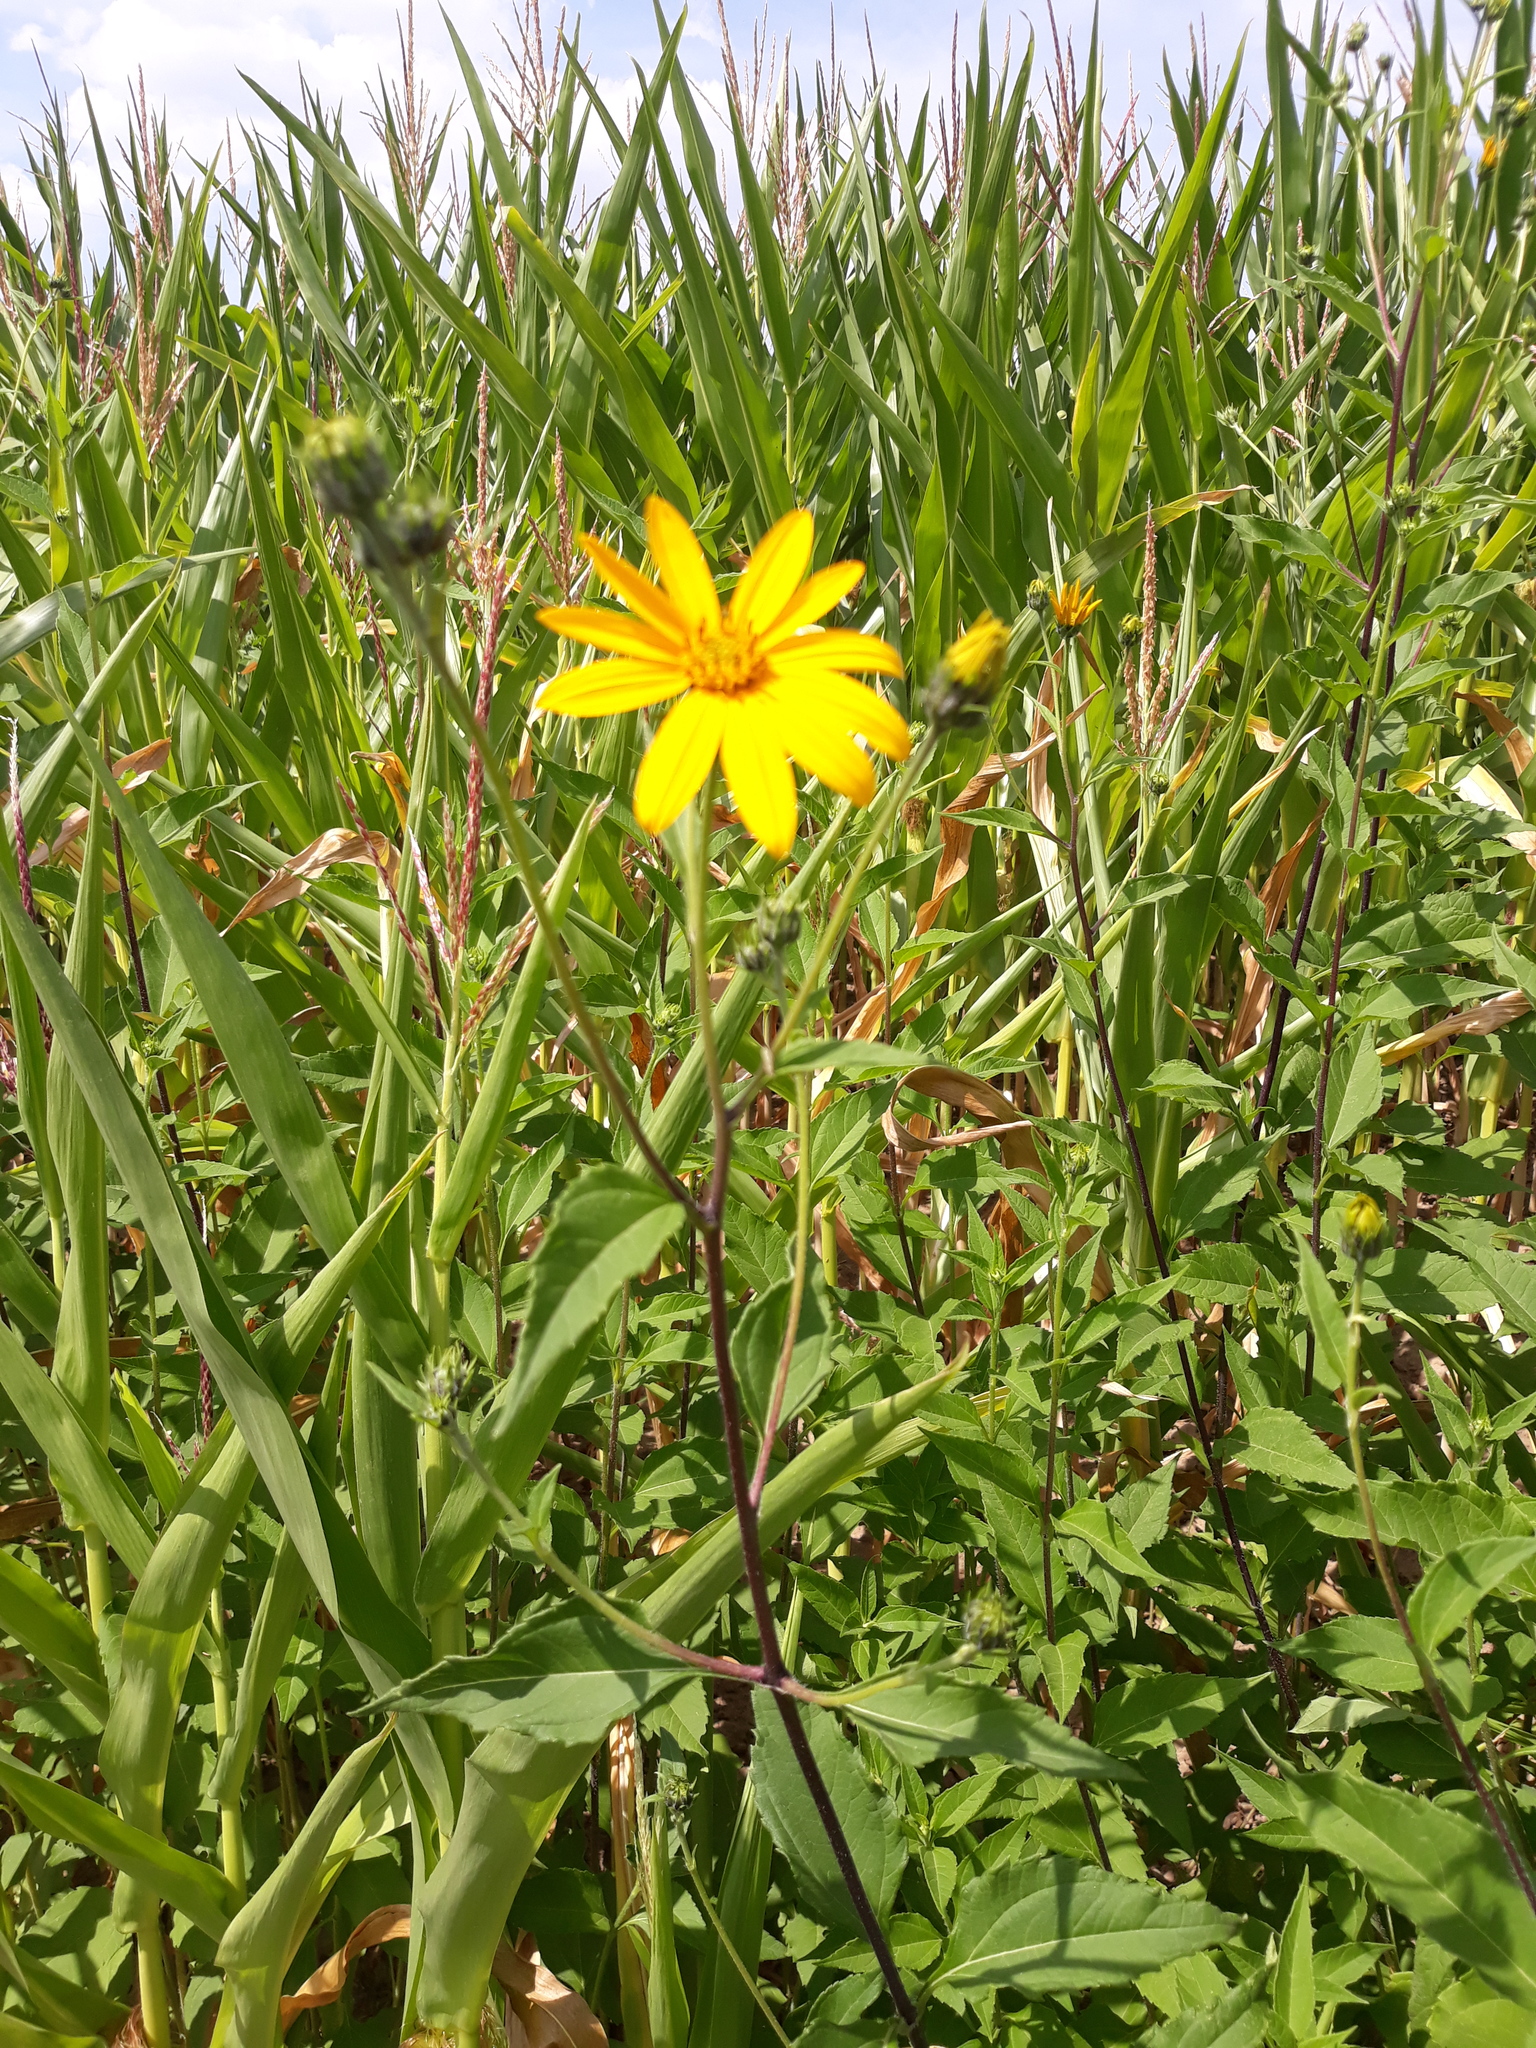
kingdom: Plantae
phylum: Tracheophyta
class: Magnoliopsida
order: Asterales
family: Asteraceae
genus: Helianthus
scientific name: Helianthus tuberosus
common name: Jerusalem artichoke
